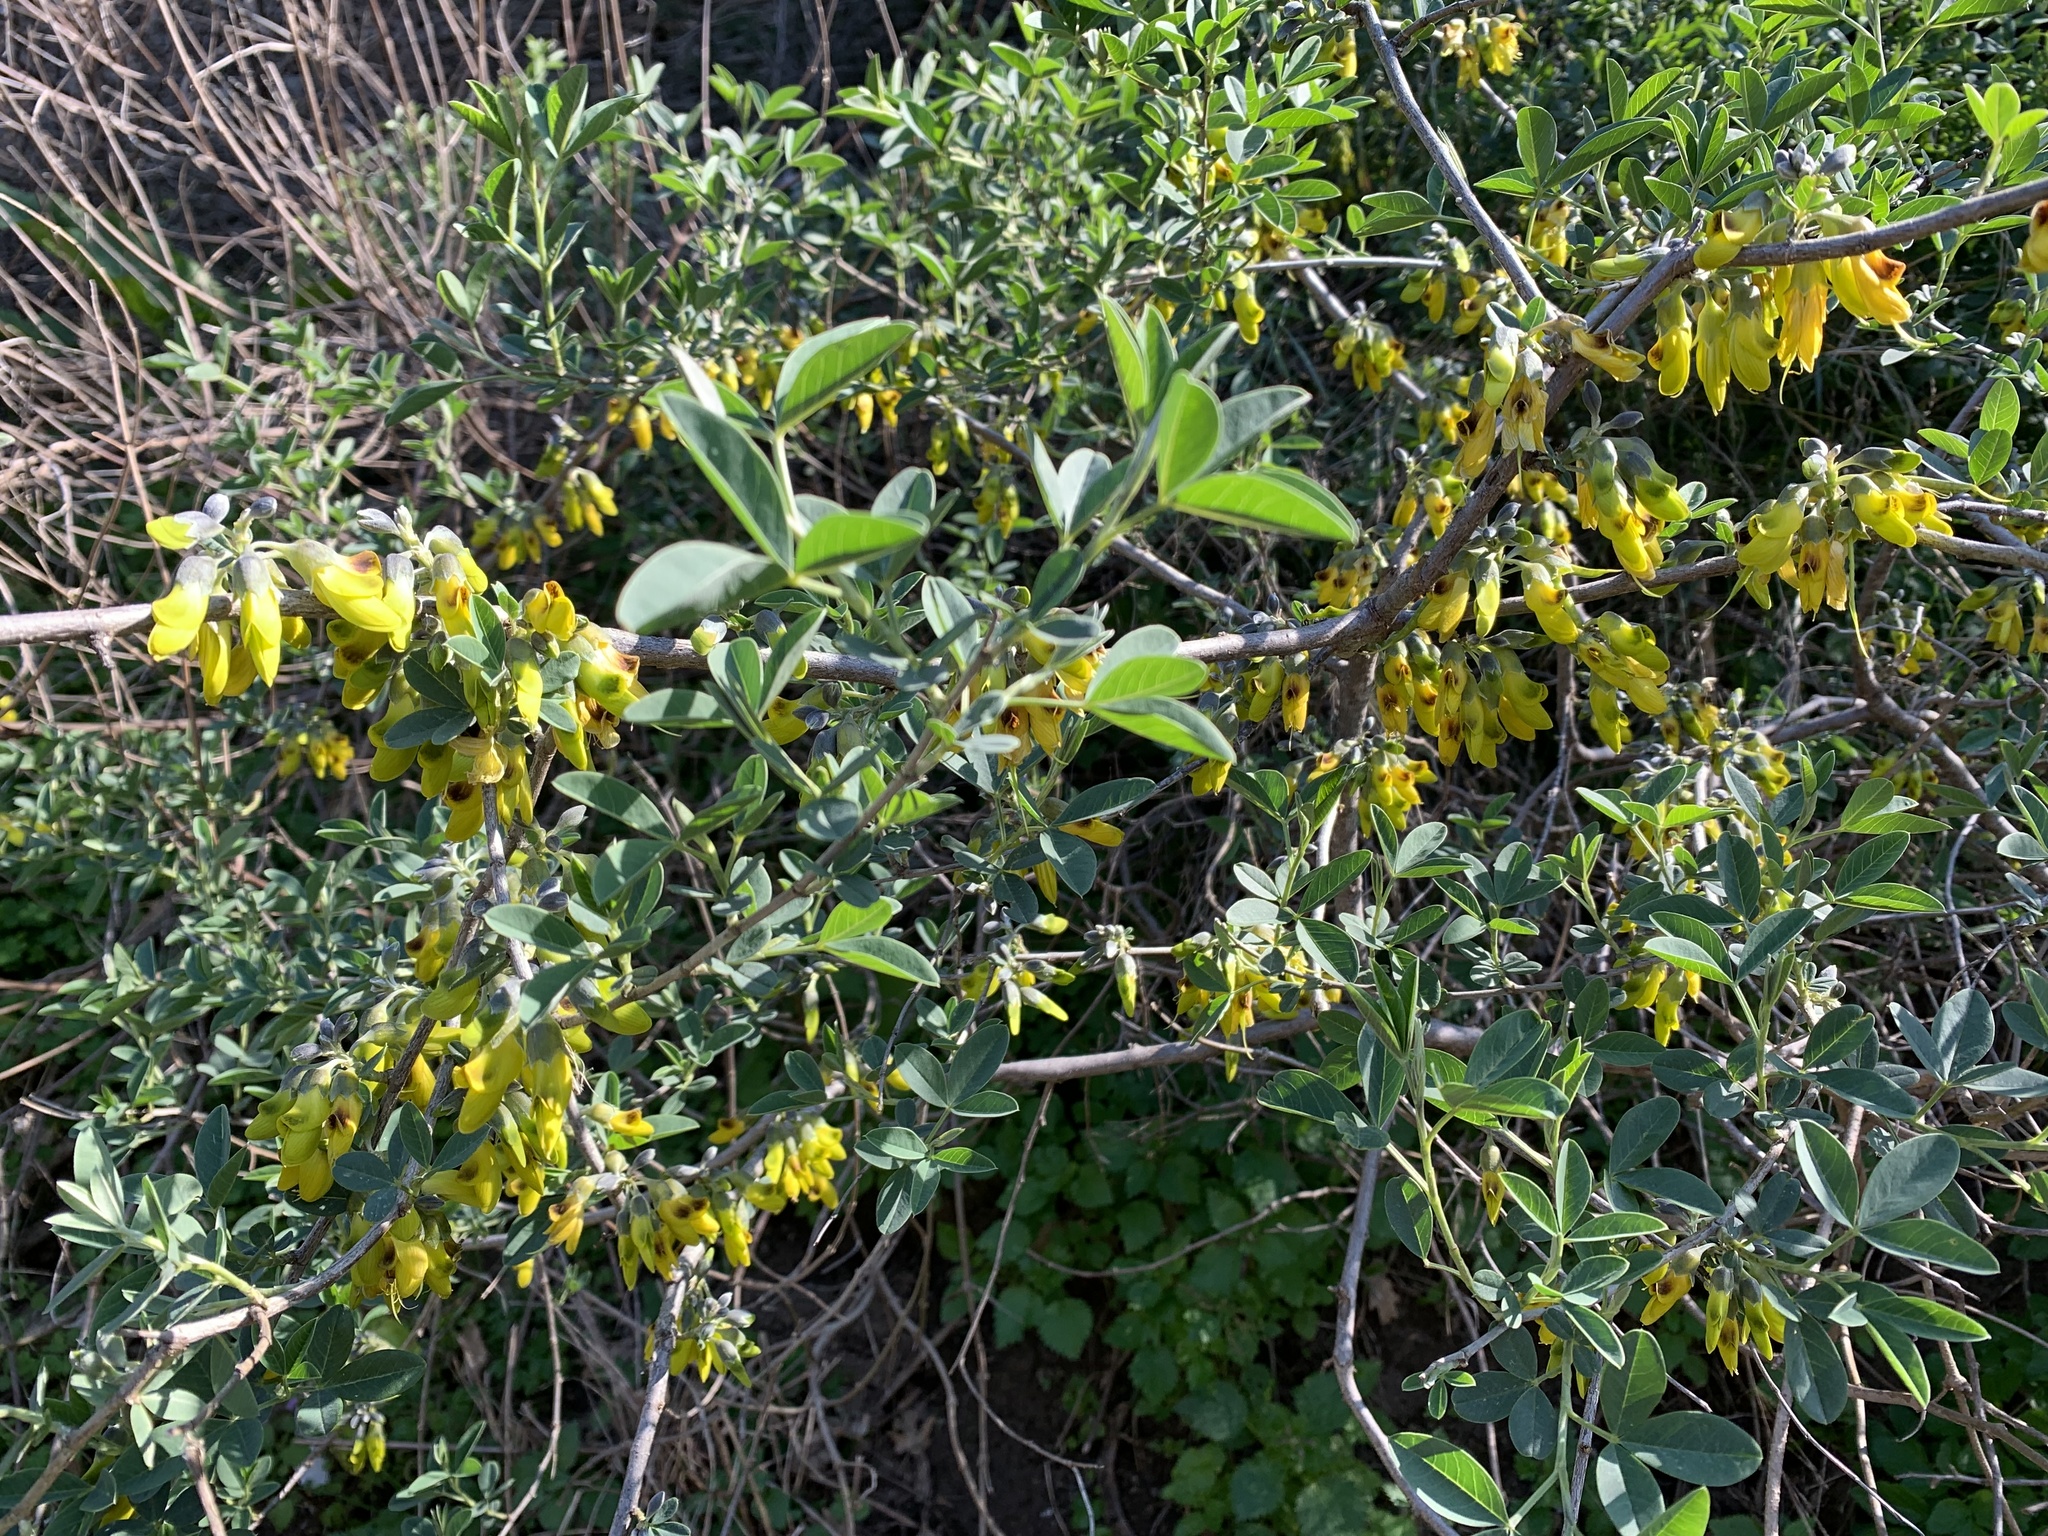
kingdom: Plantae
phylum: Tracheophyta
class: Magnoliopsida
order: Fabales
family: Fabaceae
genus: Anagyris
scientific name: Anagyris foetida
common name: Stinking bean trefoil
